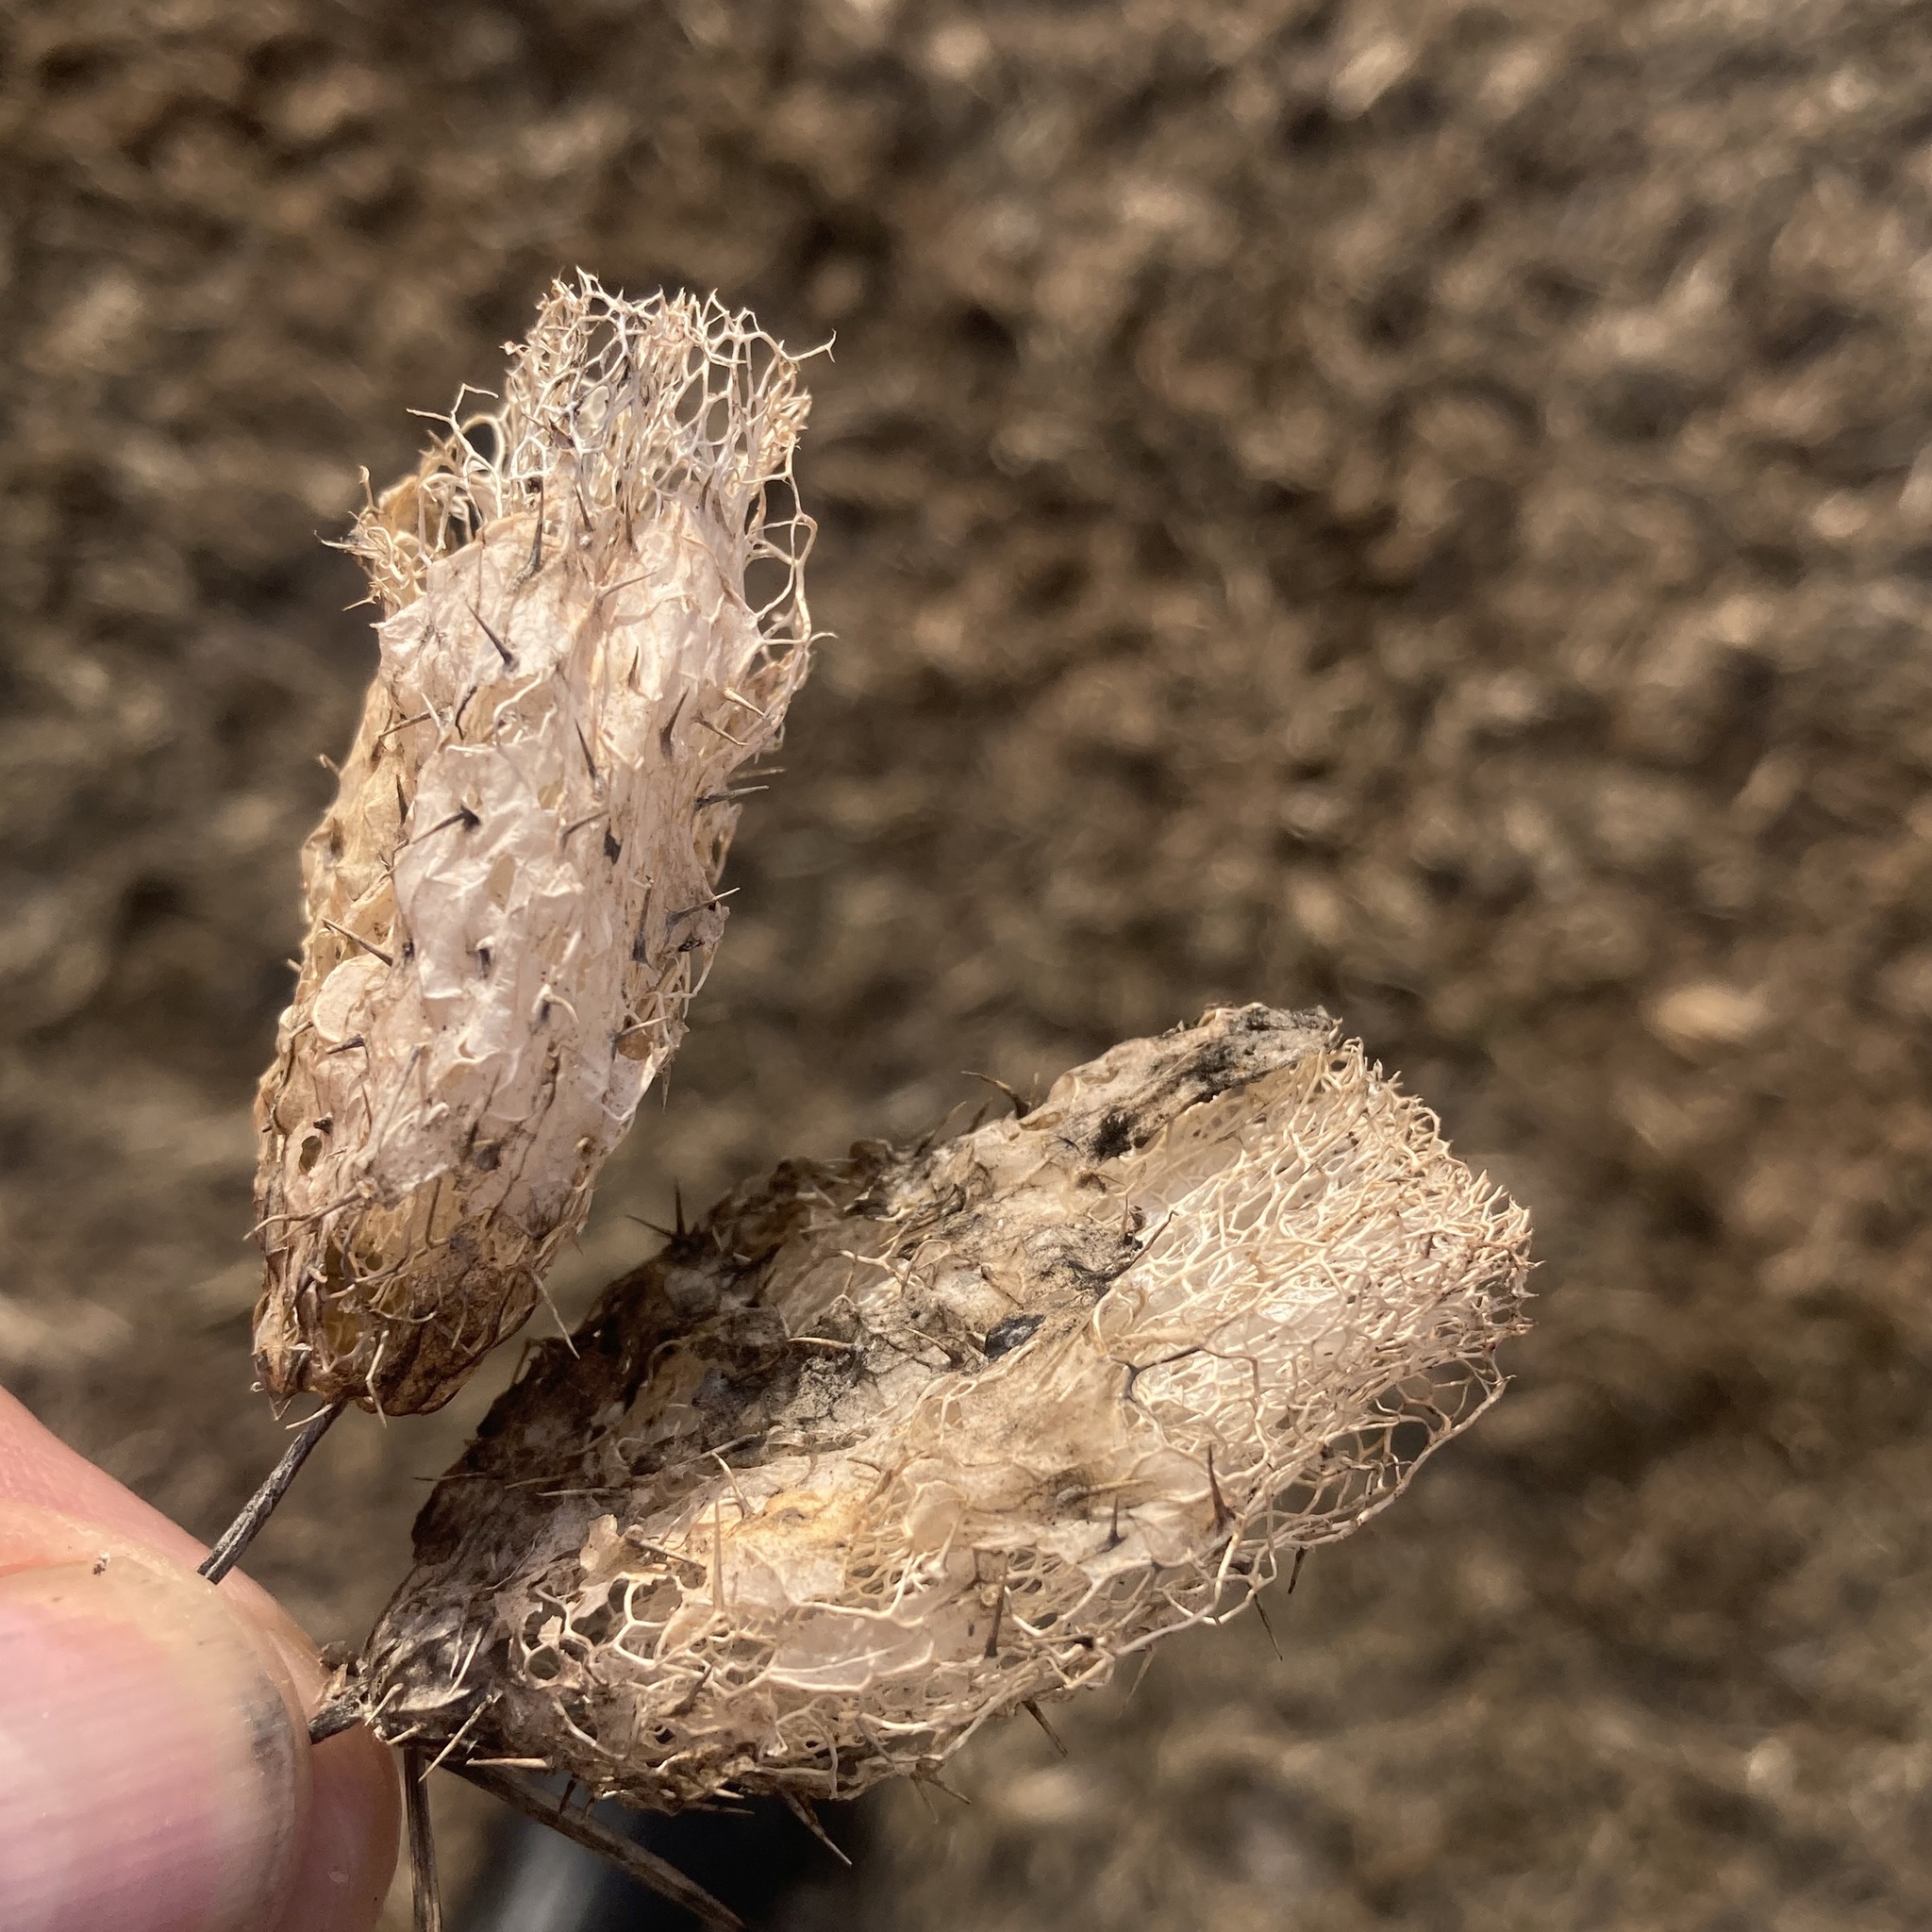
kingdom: Plantae
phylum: Tracheophyta
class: Magnoliopsida
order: Cucurbitales
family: Cucurbitaceae
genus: Echinocystis
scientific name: Echinocystis lobata
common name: Wild cucumber
